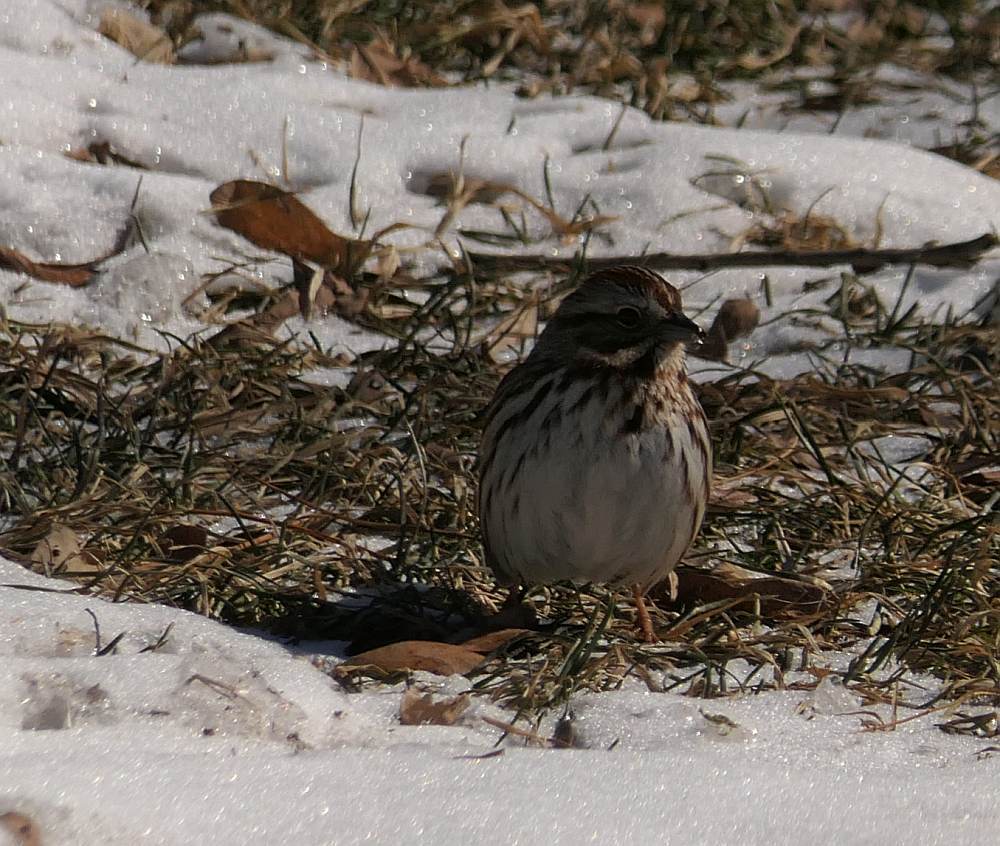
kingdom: Animalia
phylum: Chordata
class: Aves
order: Passeriformes
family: Passerellidae
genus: Melospiza
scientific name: Melospiza melodia
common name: Song sparrow
